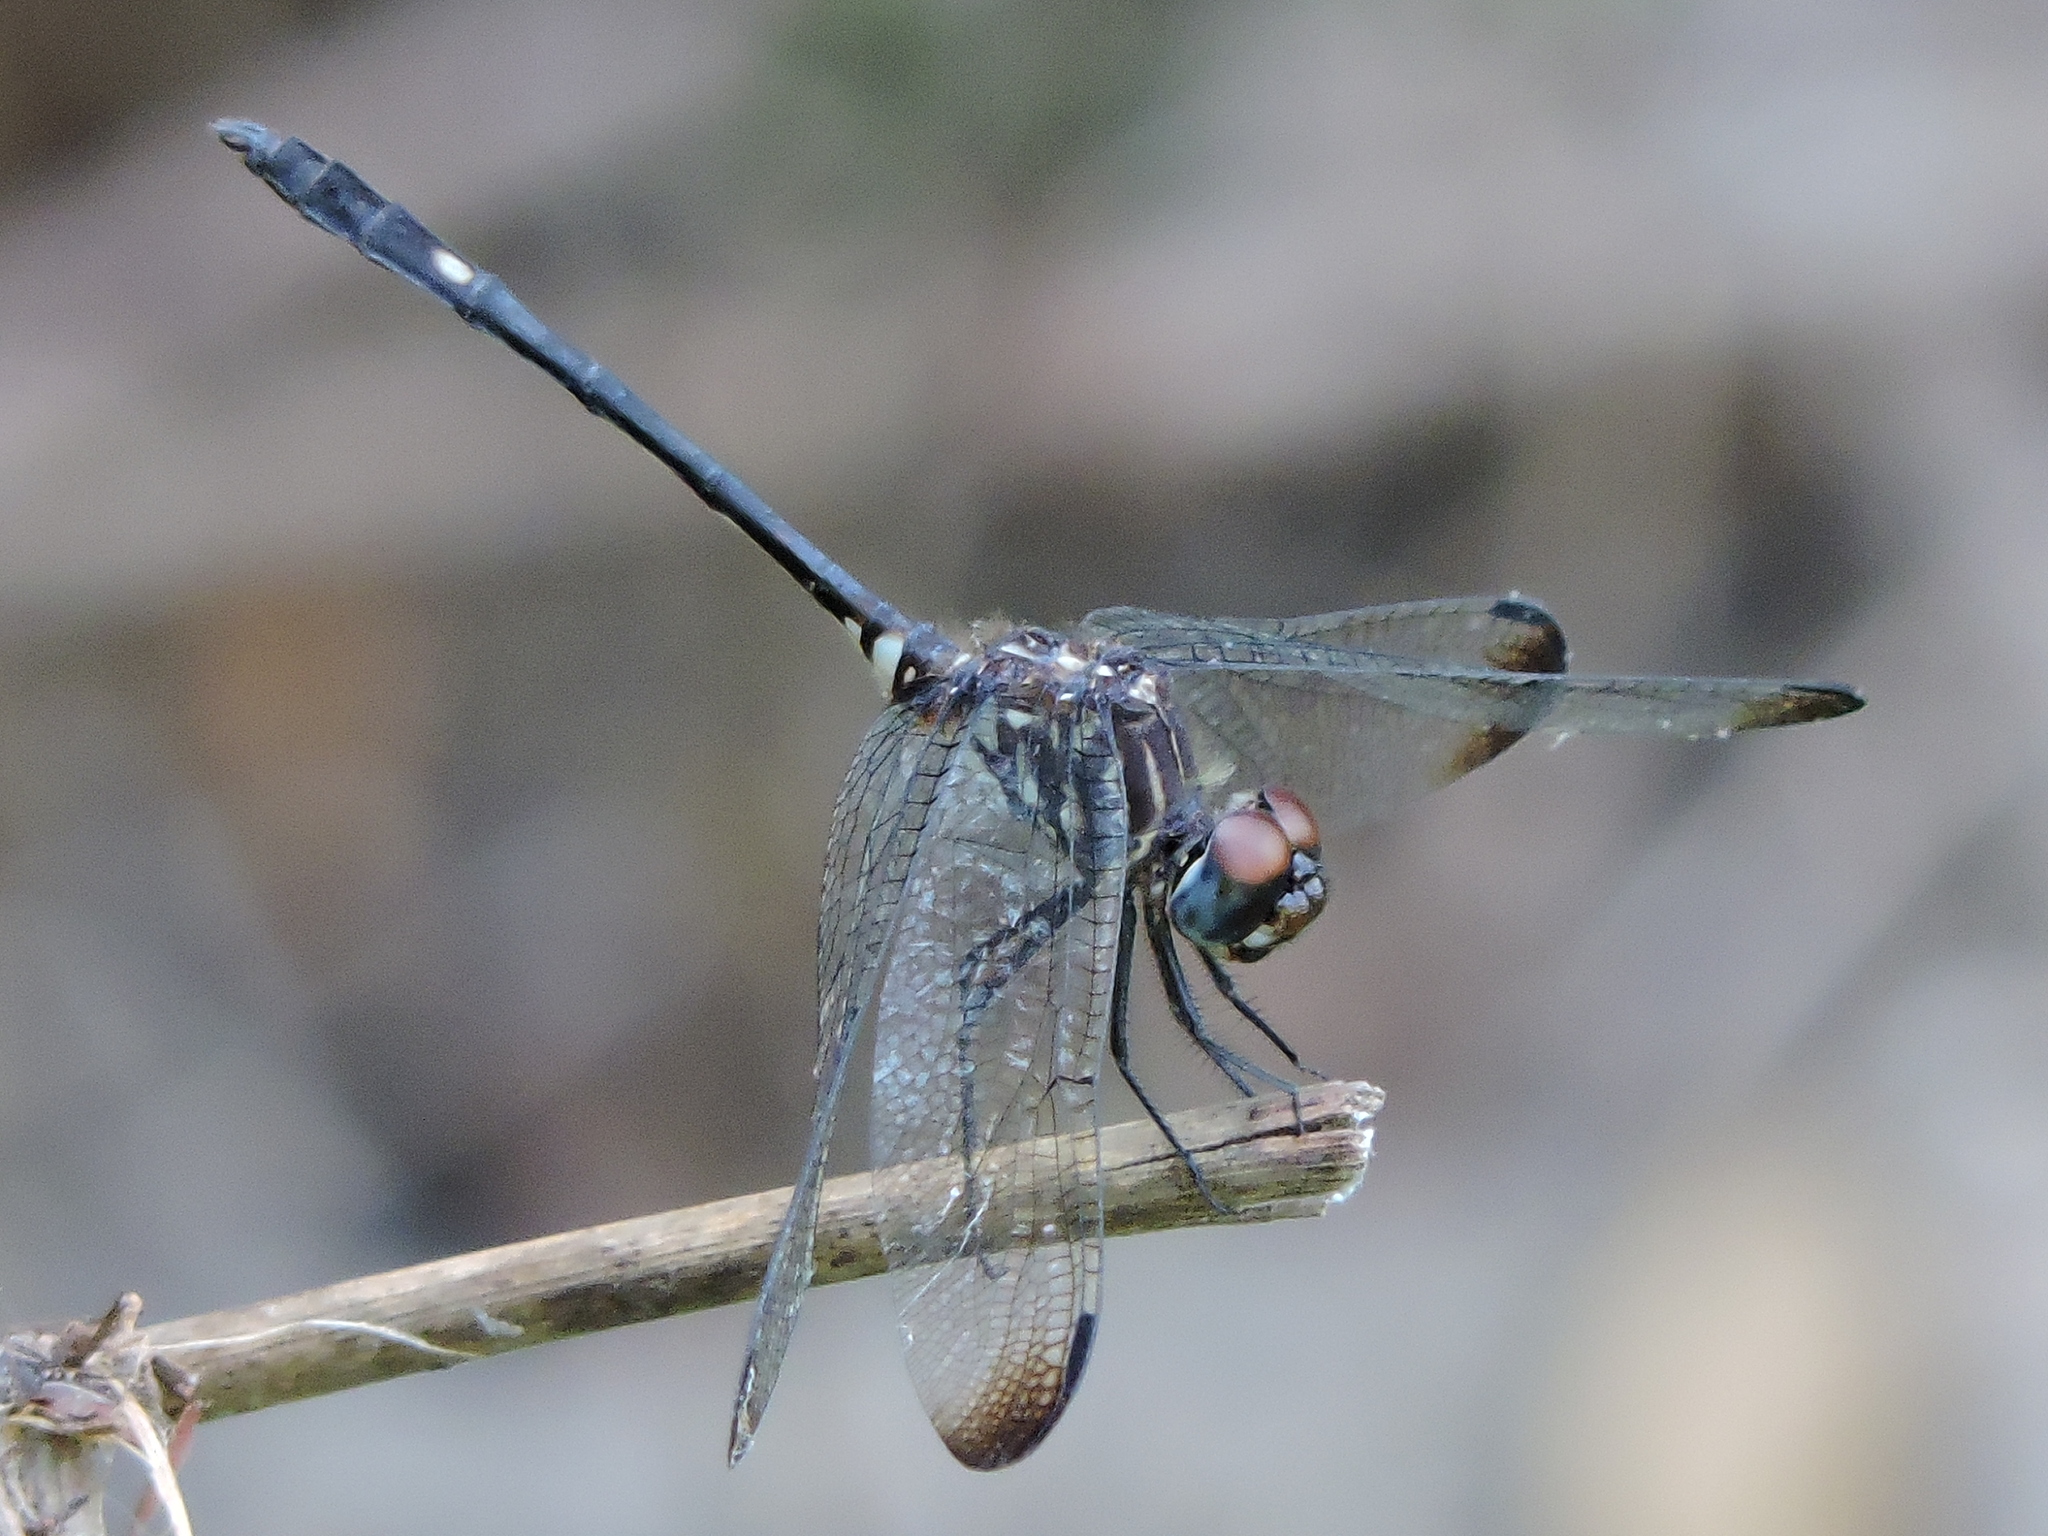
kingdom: Animalia
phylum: Arthropoda
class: Insecta
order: Odonata
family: Libellulidae
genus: Dythemis
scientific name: Dythemis velox
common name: Swift setwing
